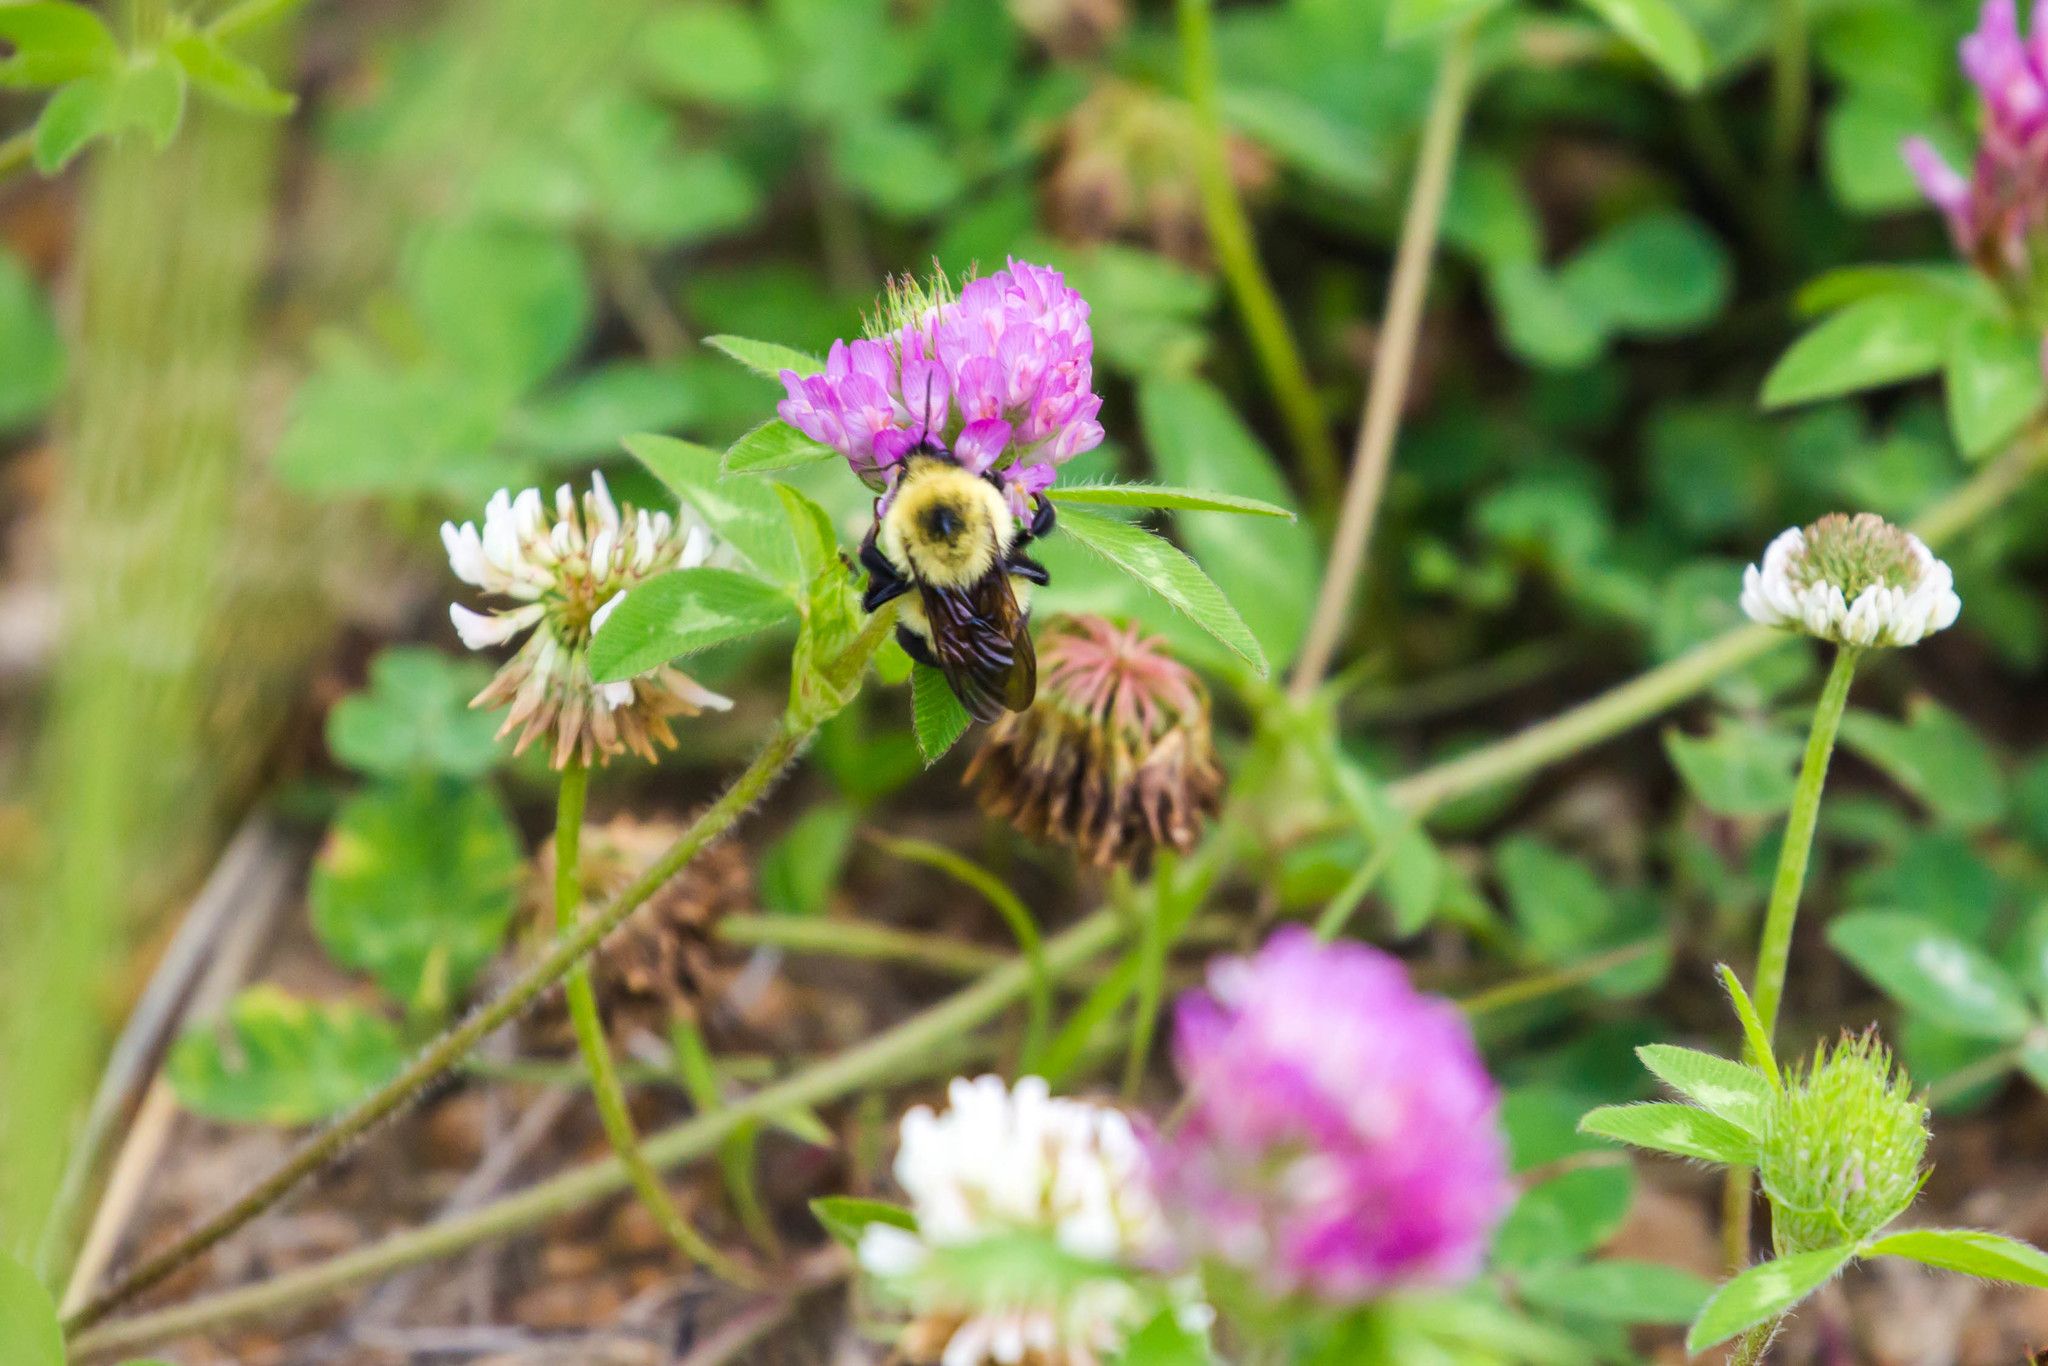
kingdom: Animalia
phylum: Arthropoda
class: Insecta
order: Hymenoptera
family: Apidae
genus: Bombus
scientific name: Bombus bimaculatus
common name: Two-spotted bumble bee
